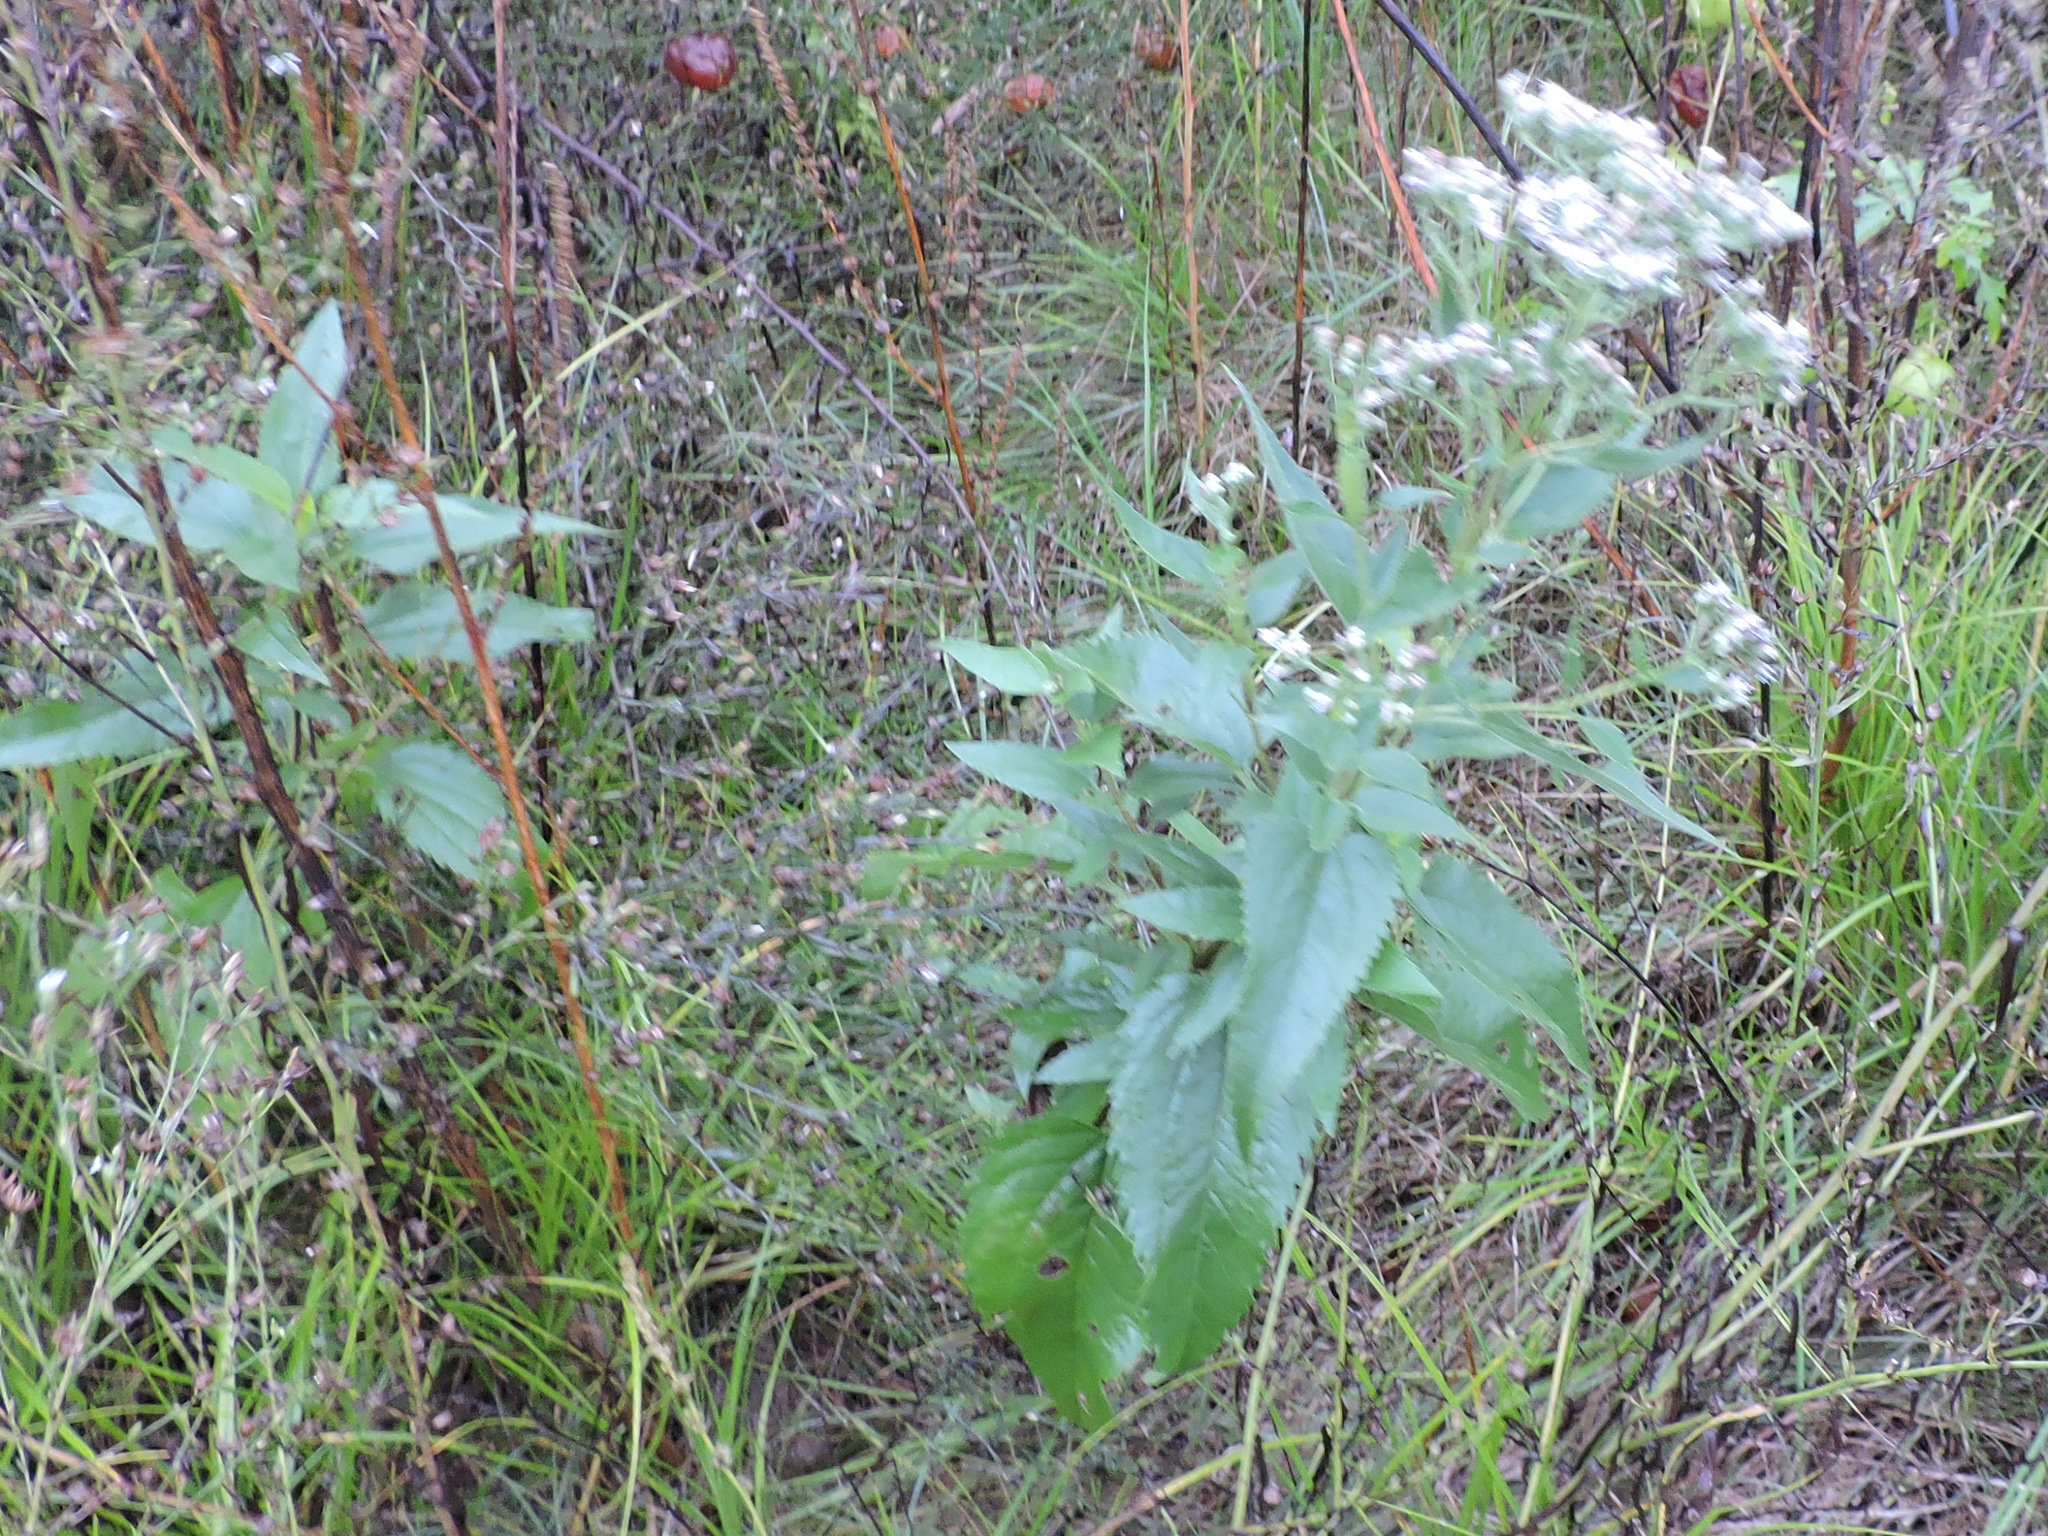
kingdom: Plantae
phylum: Tracheophyta
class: Magnoliopsida
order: Asterales
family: Asteraceae
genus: Eupatorium
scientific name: Eupatorium serotinum
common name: Late boneset
